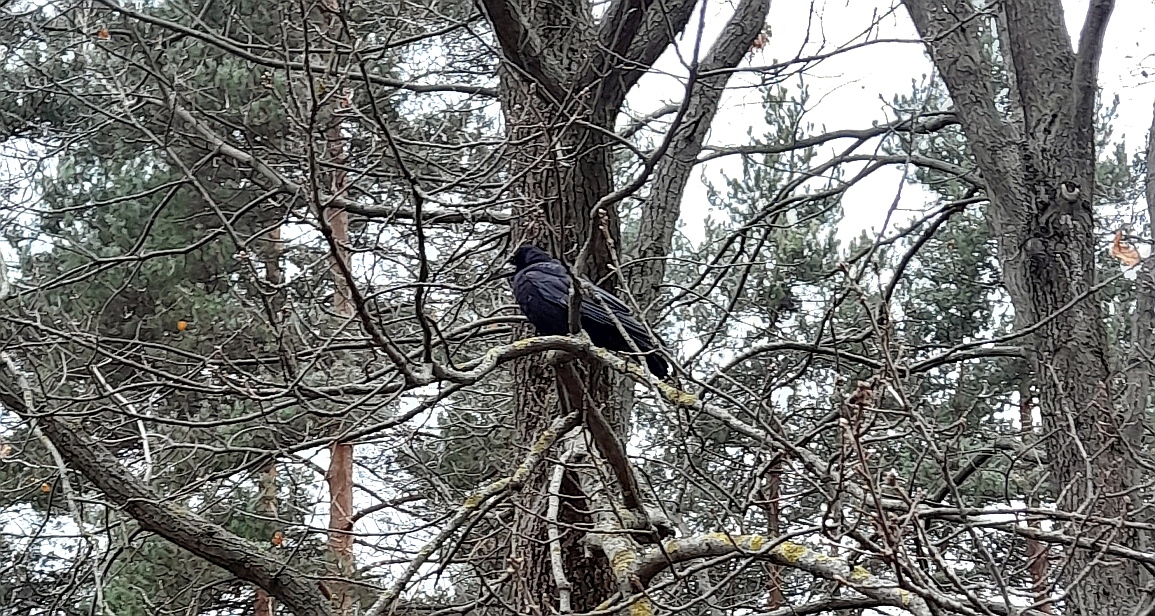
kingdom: Animalia
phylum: Chordata
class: Aves
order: Passeriformes
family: Corvidae
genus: Corvus
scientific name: Corvus frugilegus
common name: Rook
